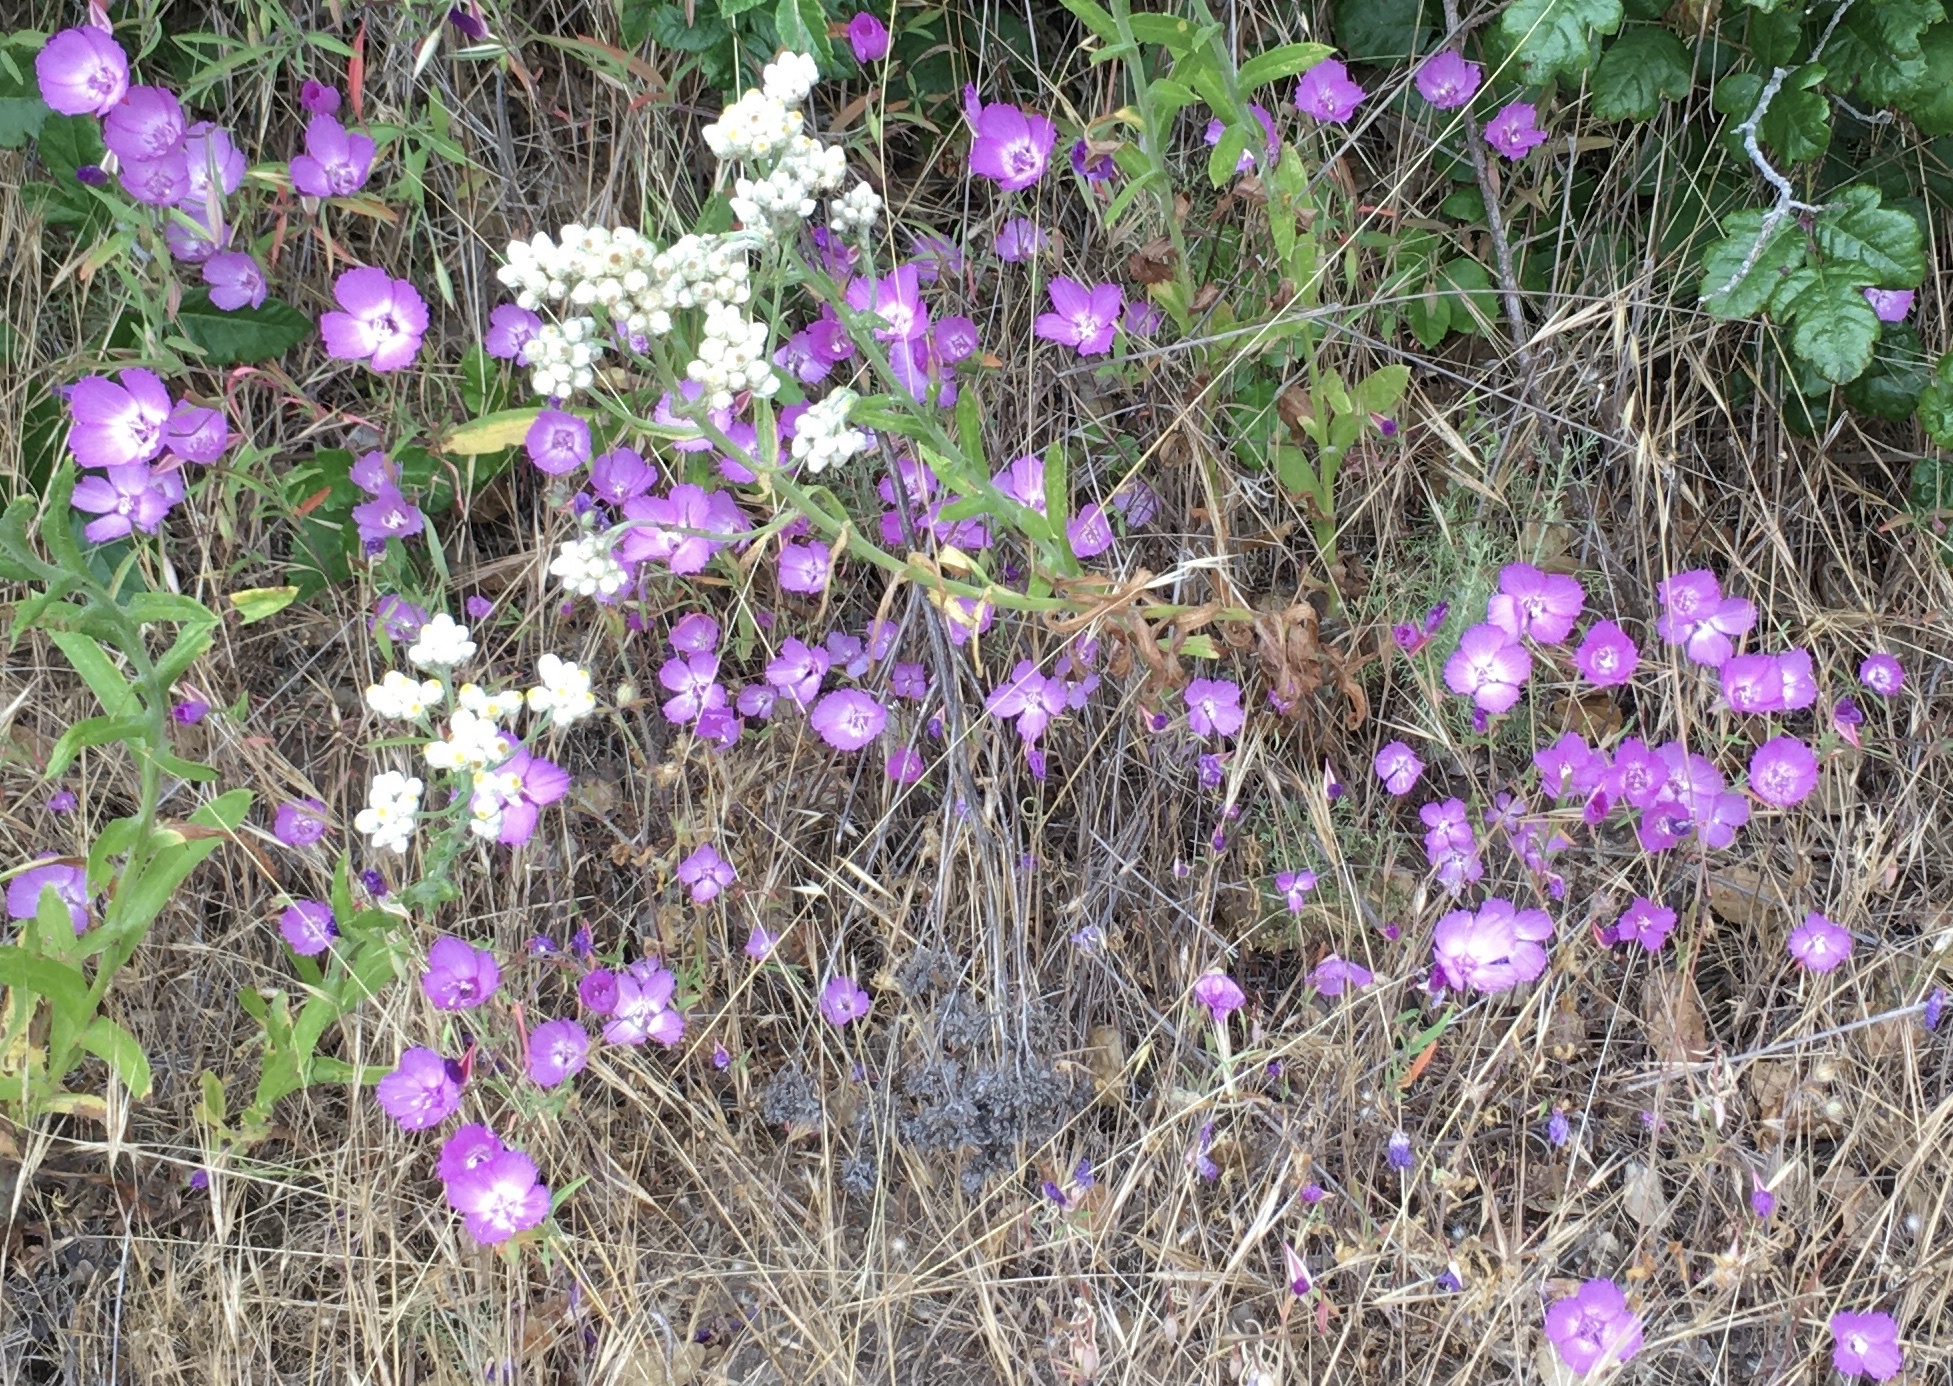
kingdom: Plantae
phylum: Tracheophyta
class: Magnoliopsida
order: Myrtales
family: Onagraceae
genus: Clarkia
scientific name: Clarkia lewisii
